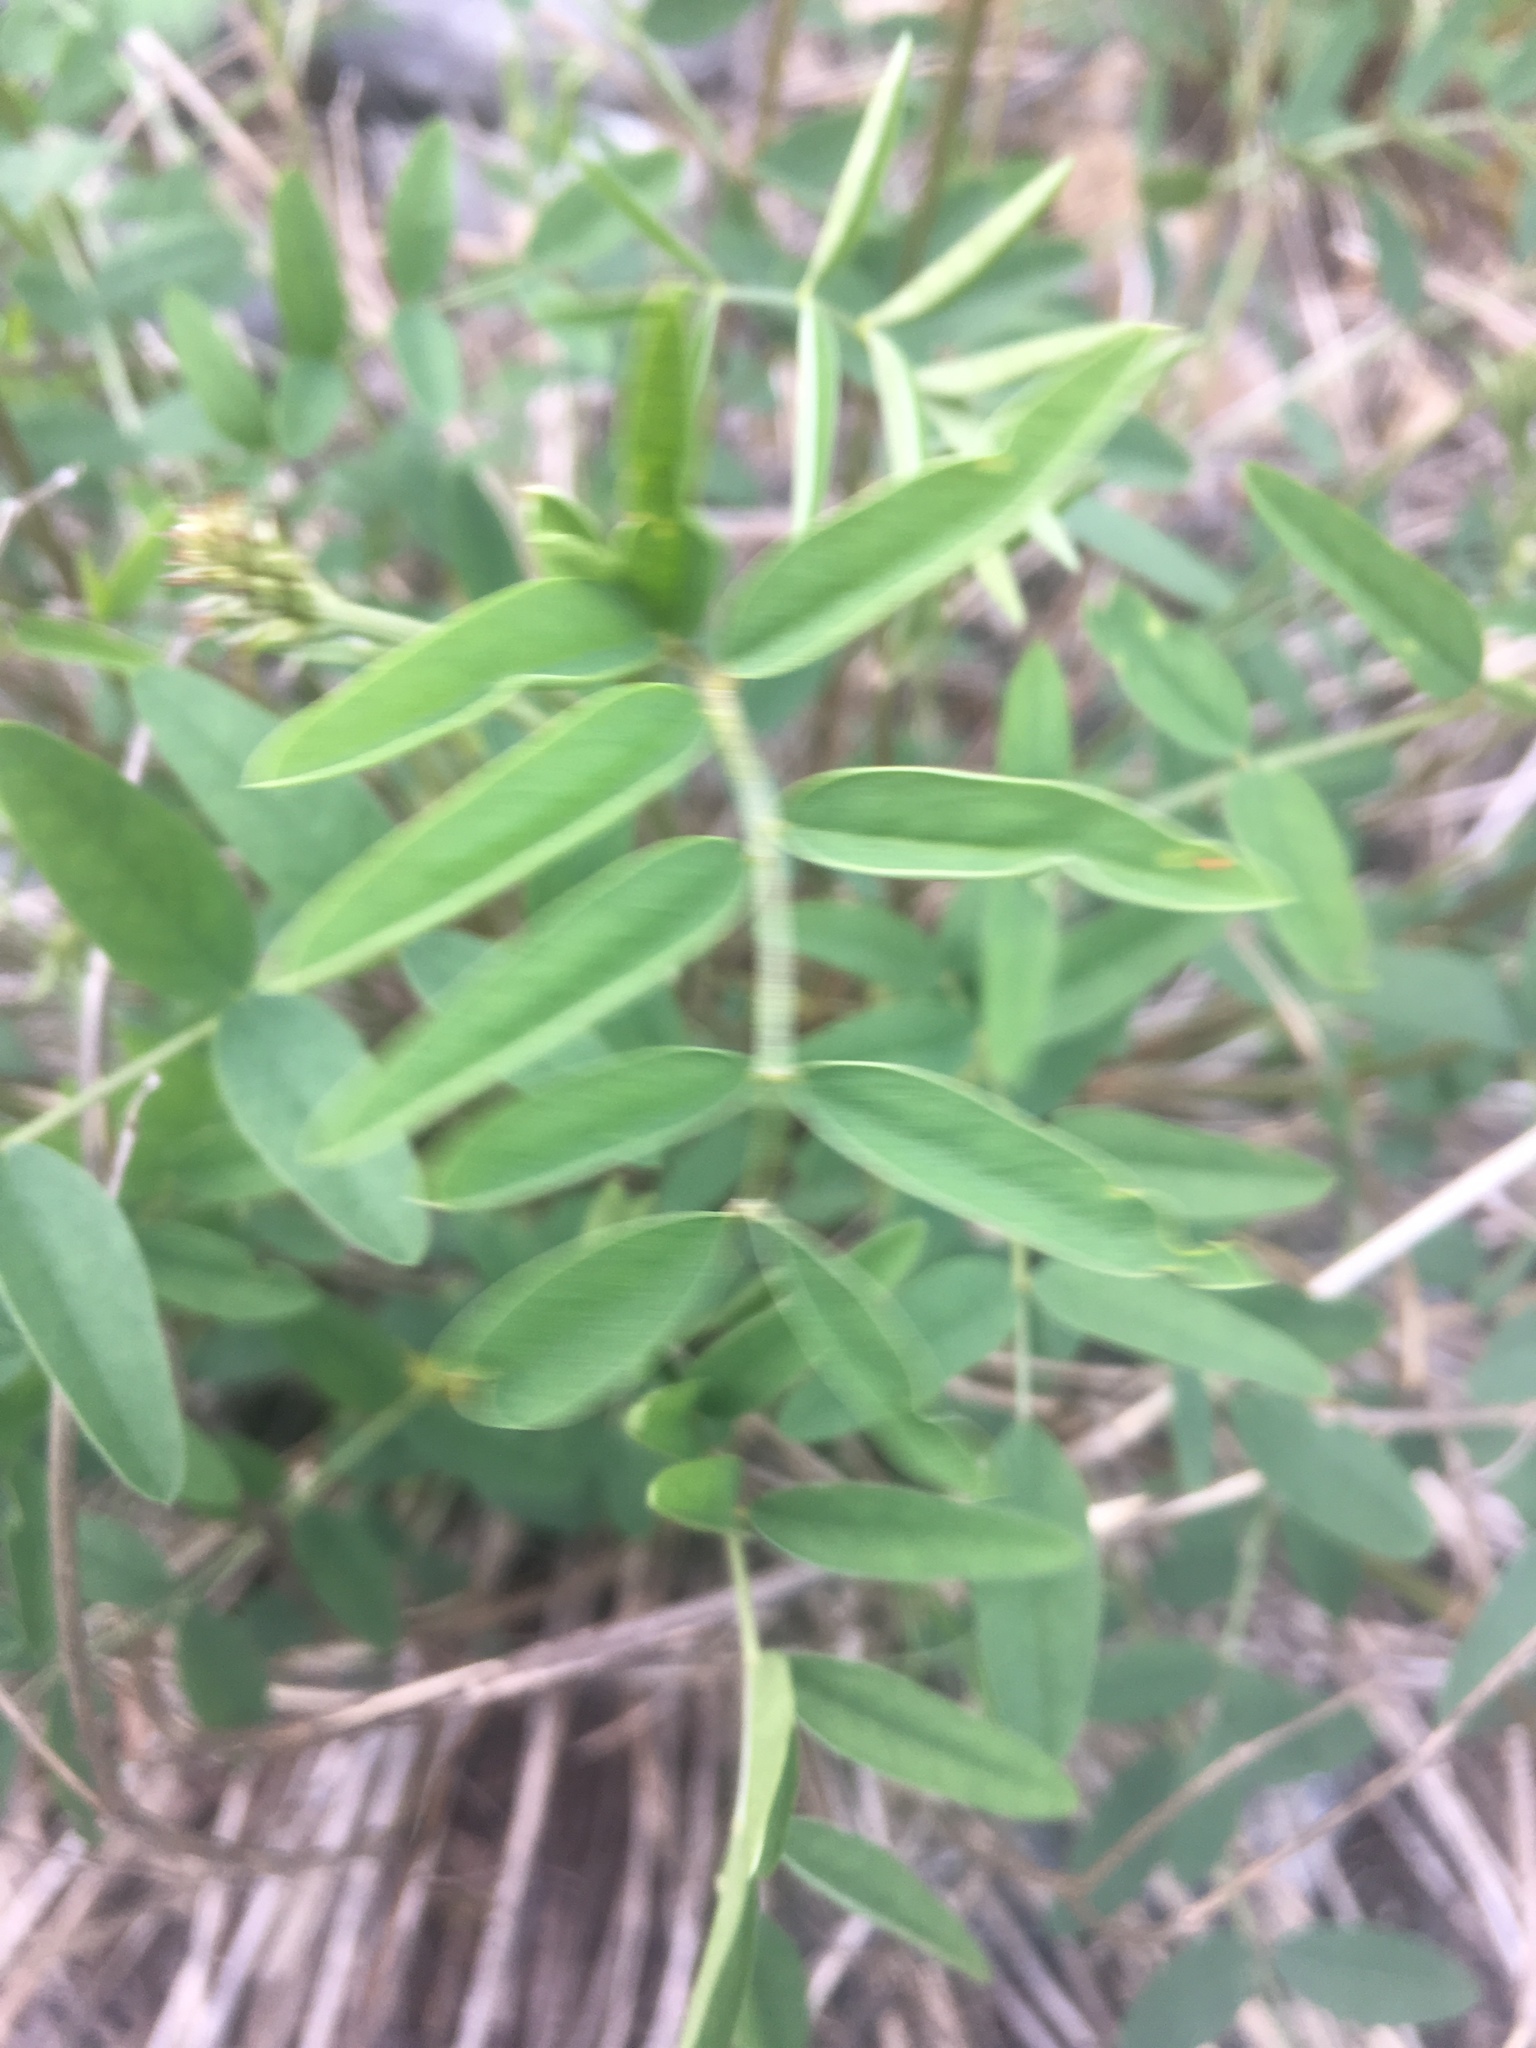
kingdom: Plantae
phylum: Tracheophyta
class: Magnoliopsida
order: Fabales
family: Fabaceae
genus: Hedysarum
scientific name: Hedysarum boreale
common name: Northern sweet-vetch
